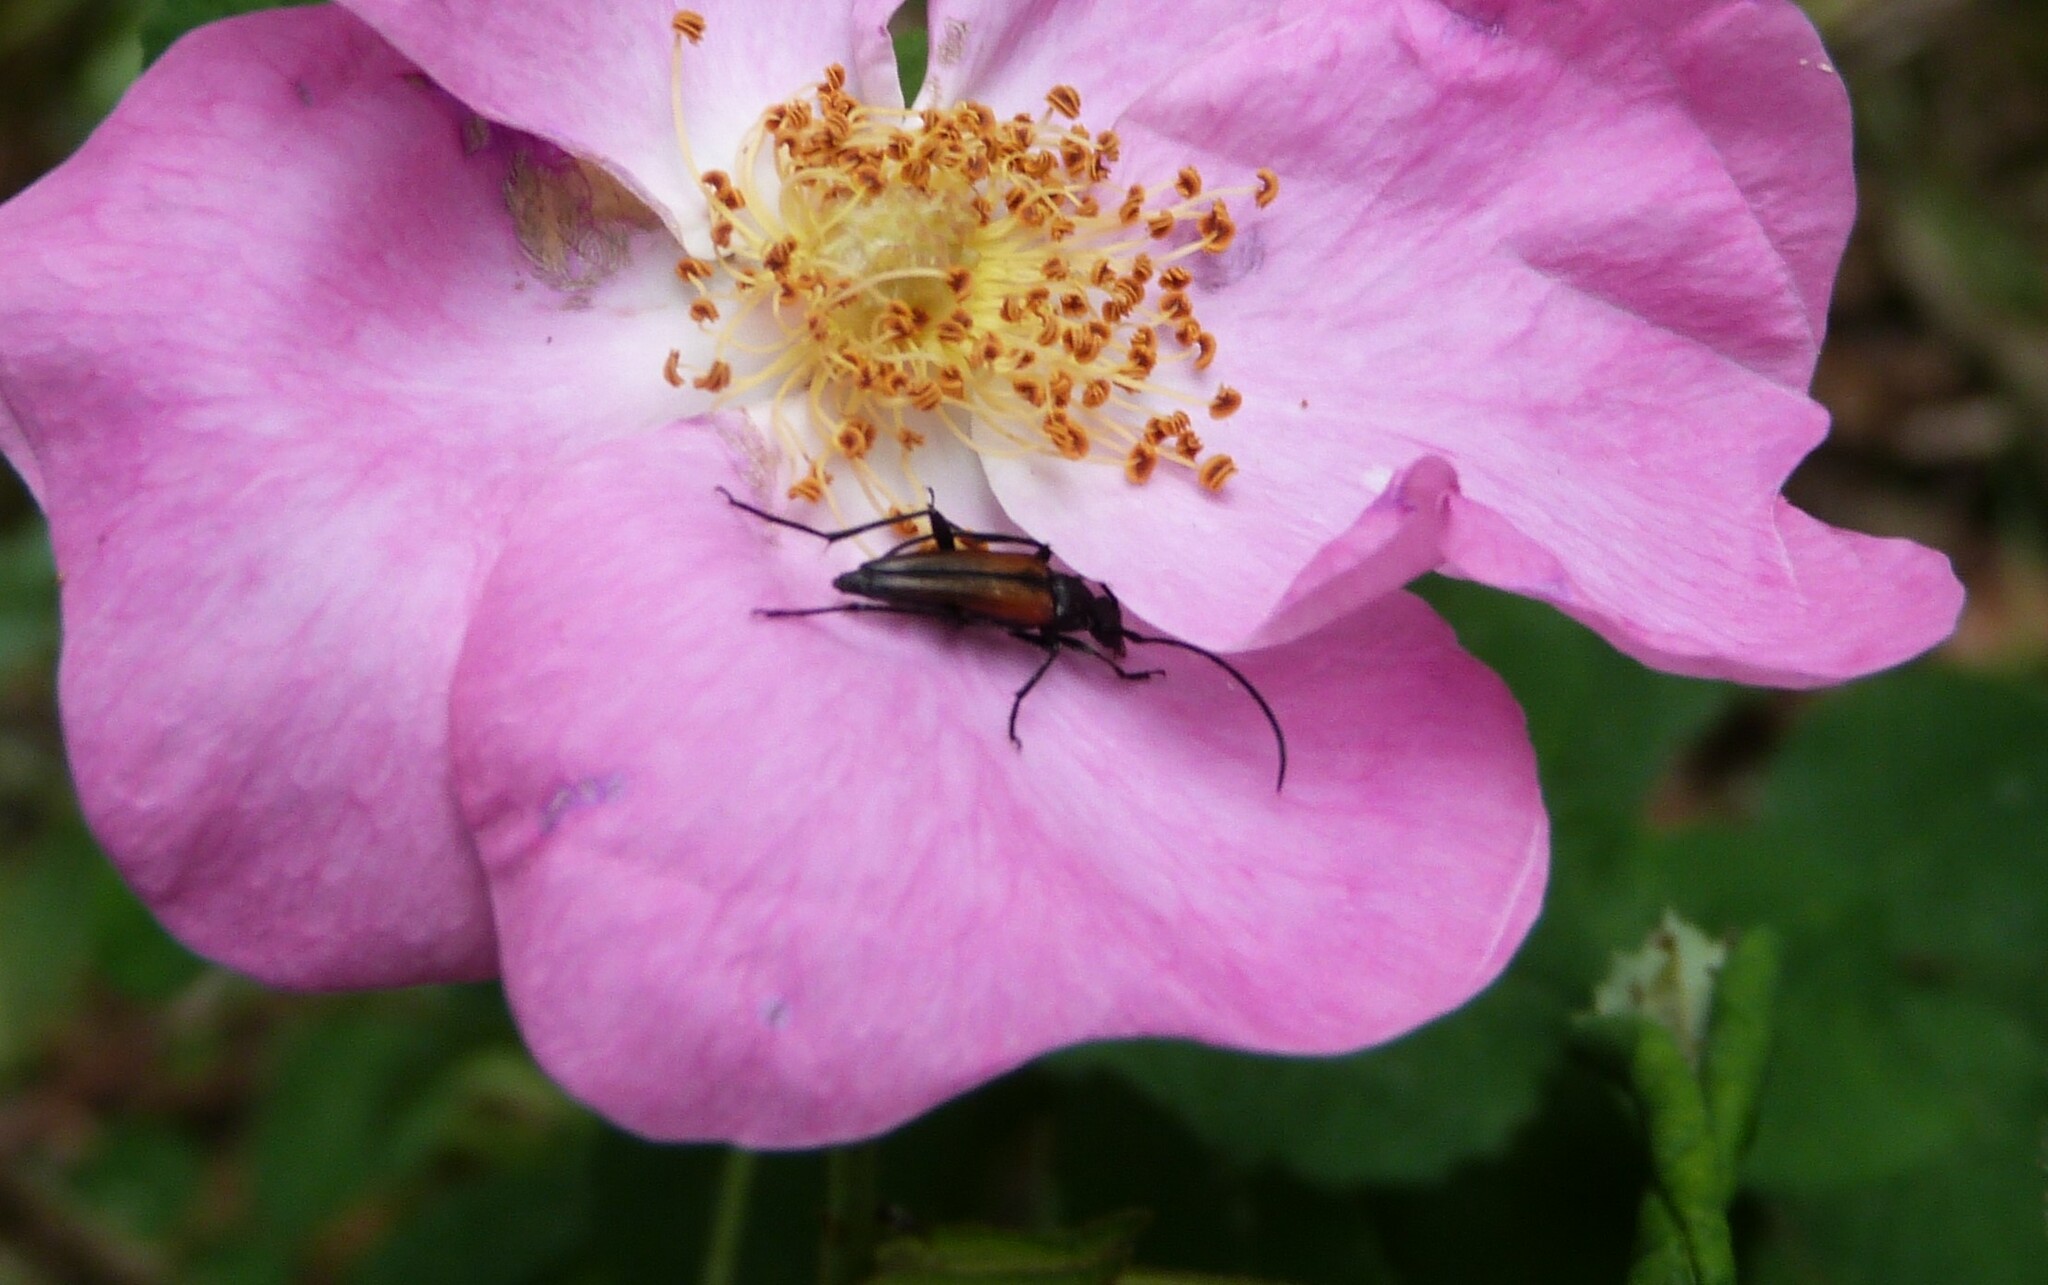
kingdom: Animalia
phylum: Arthropoda
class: Insecta
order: Coleoptera
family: Cerambycidae
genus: Stenurella
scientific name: Stenurella melanura
